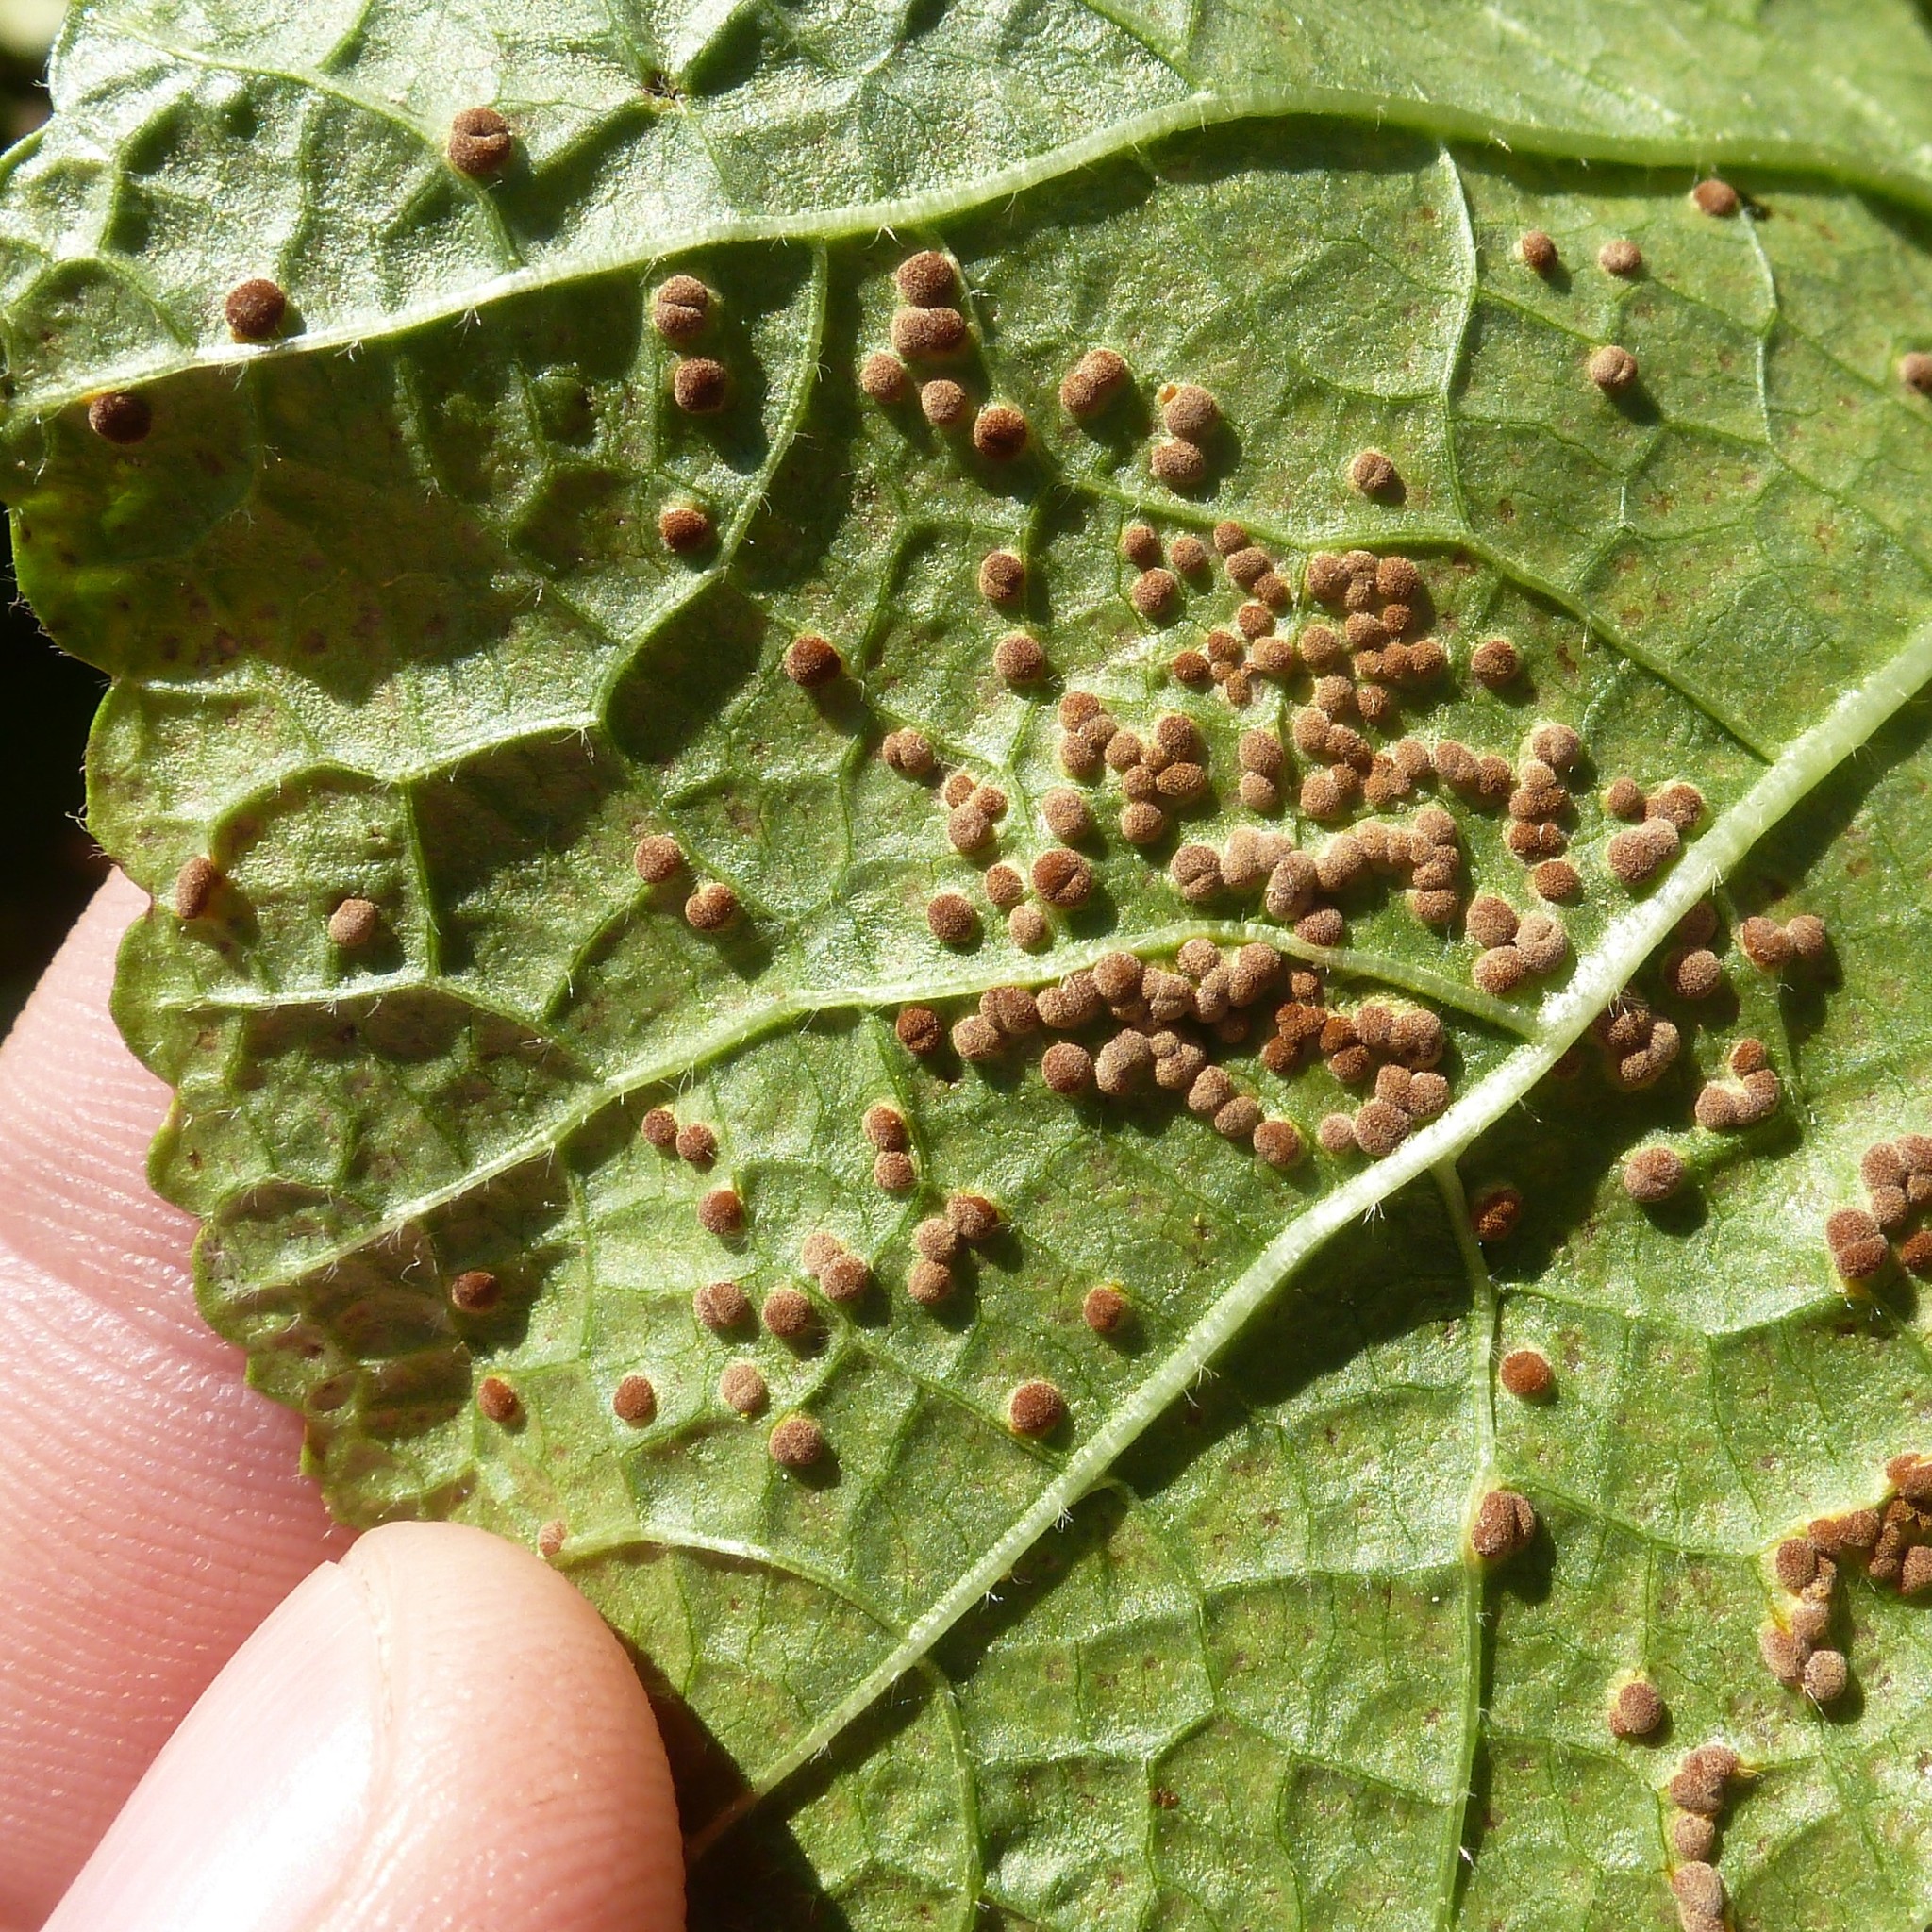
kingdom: Fungi
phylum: Basidiomycota
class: Pucciniomycetes
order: Pucciniales
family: Pucciniaceae
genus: Puccinia
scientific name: Puccinia malvacearum
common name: Hollyhock rust
